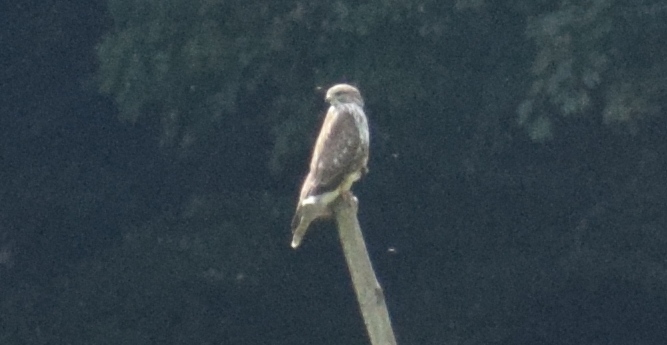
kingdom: Animalia
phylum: Chordata
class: Aves
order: Accipitriformes
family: Accipitridae
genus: Buteo
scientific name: Buteo buteo
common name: Common buzzard
